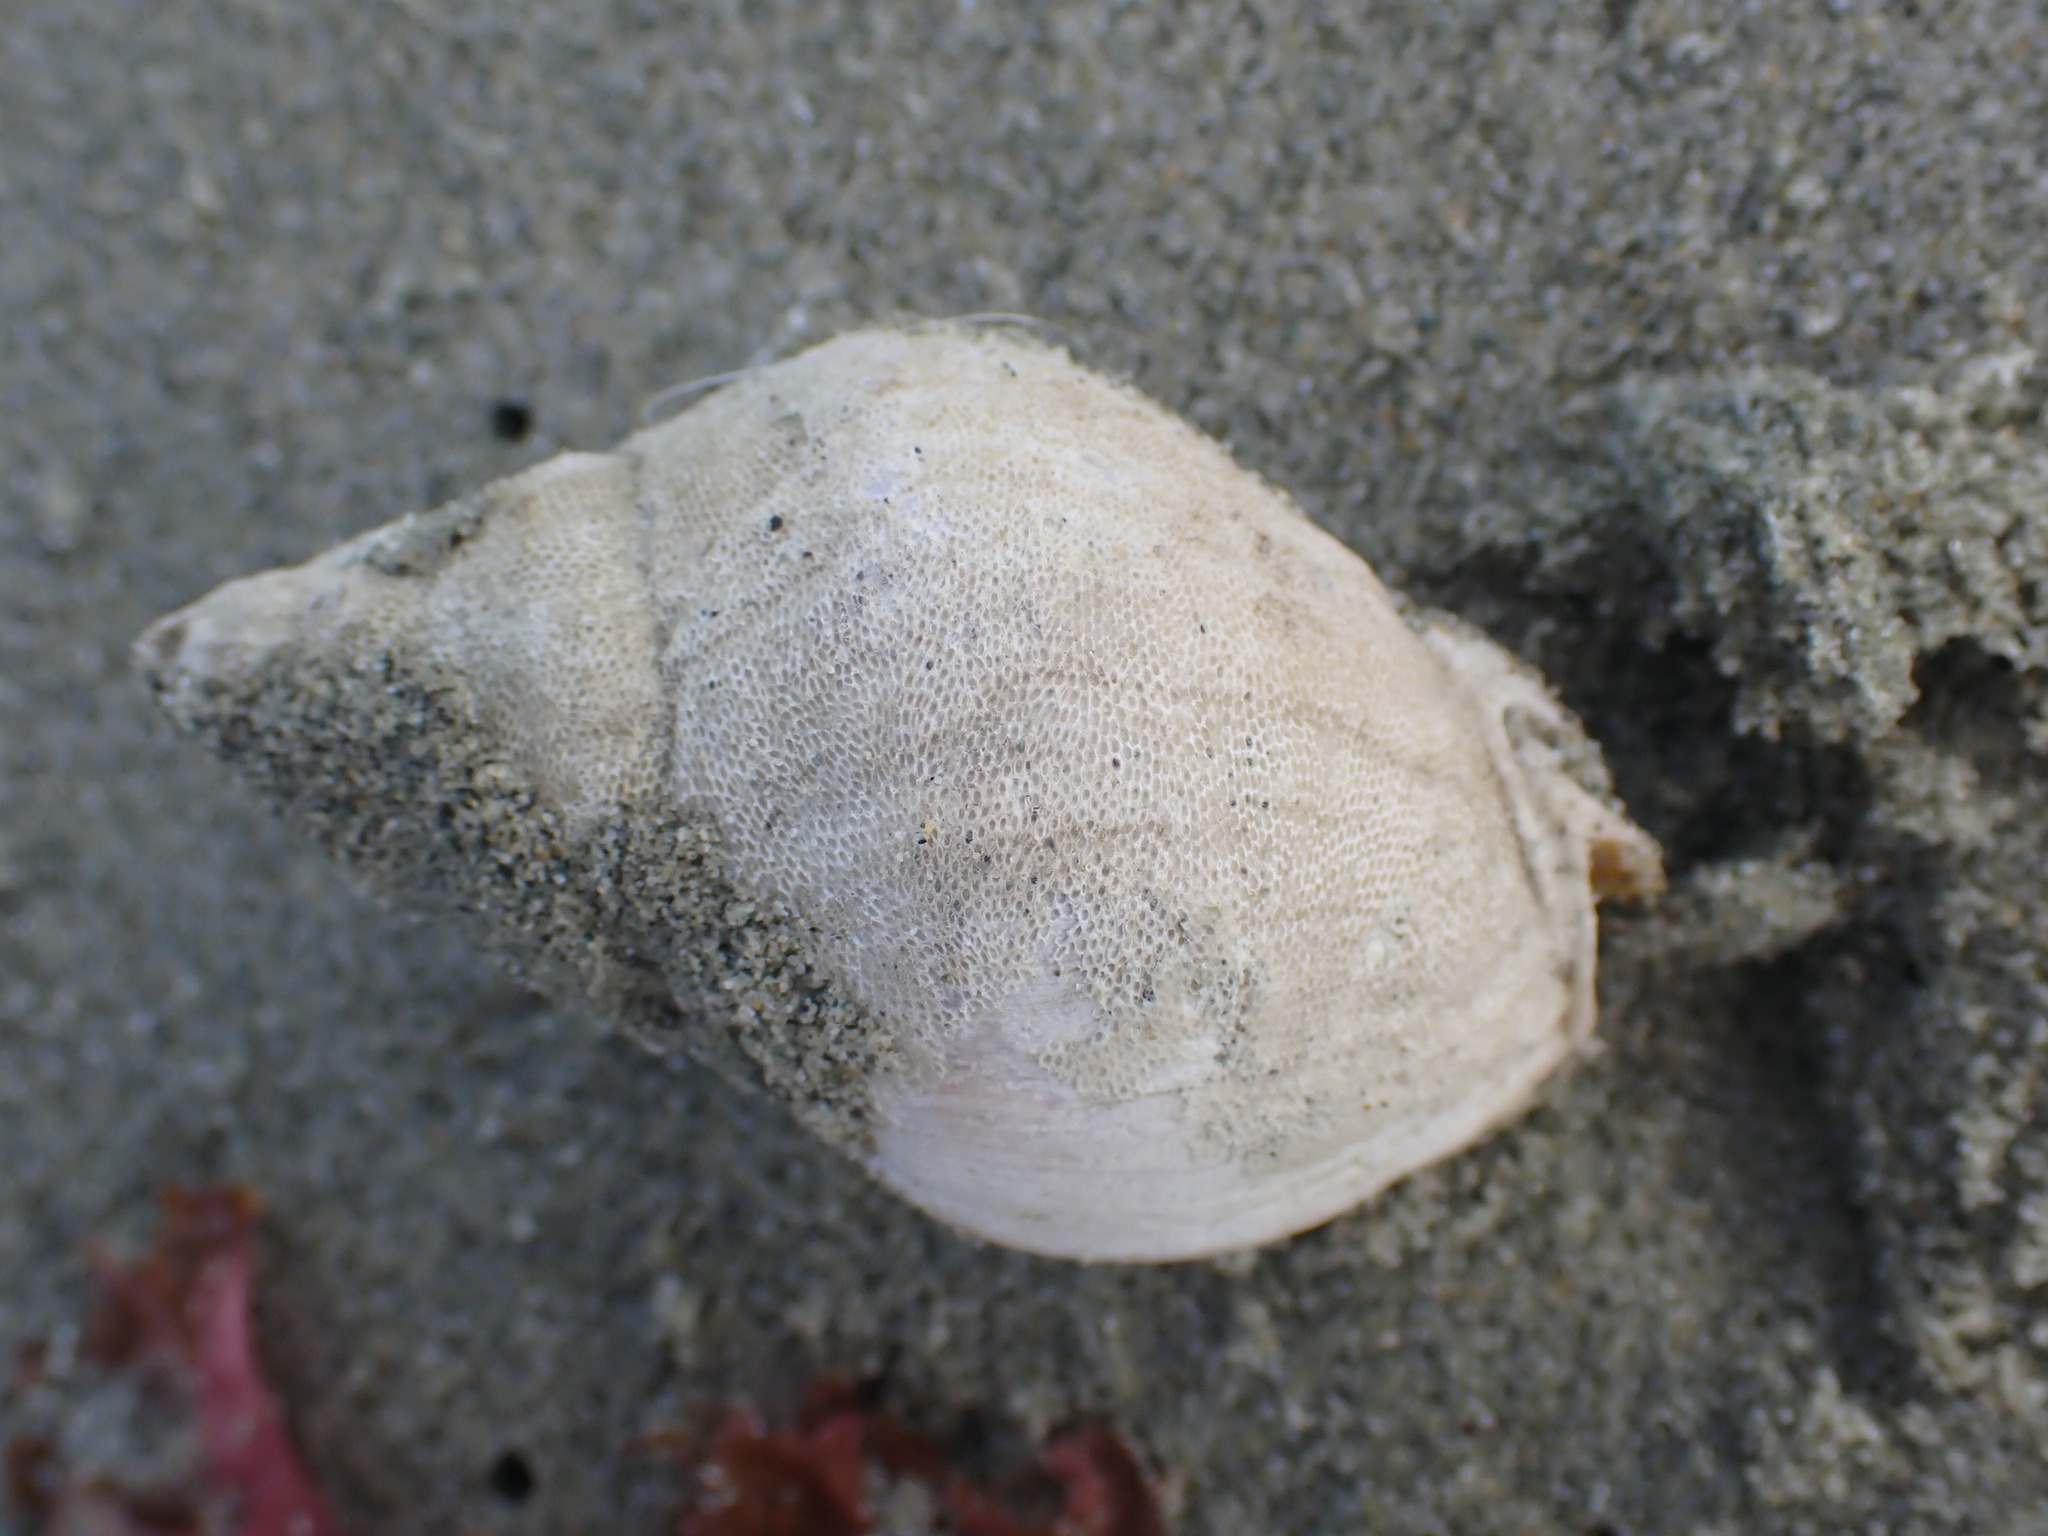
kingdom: Animalia
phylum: Mollusca
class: Gastropoda
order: Neogastropoda
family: Cominellidae
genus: Cominella
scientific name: Cominella adspersa
